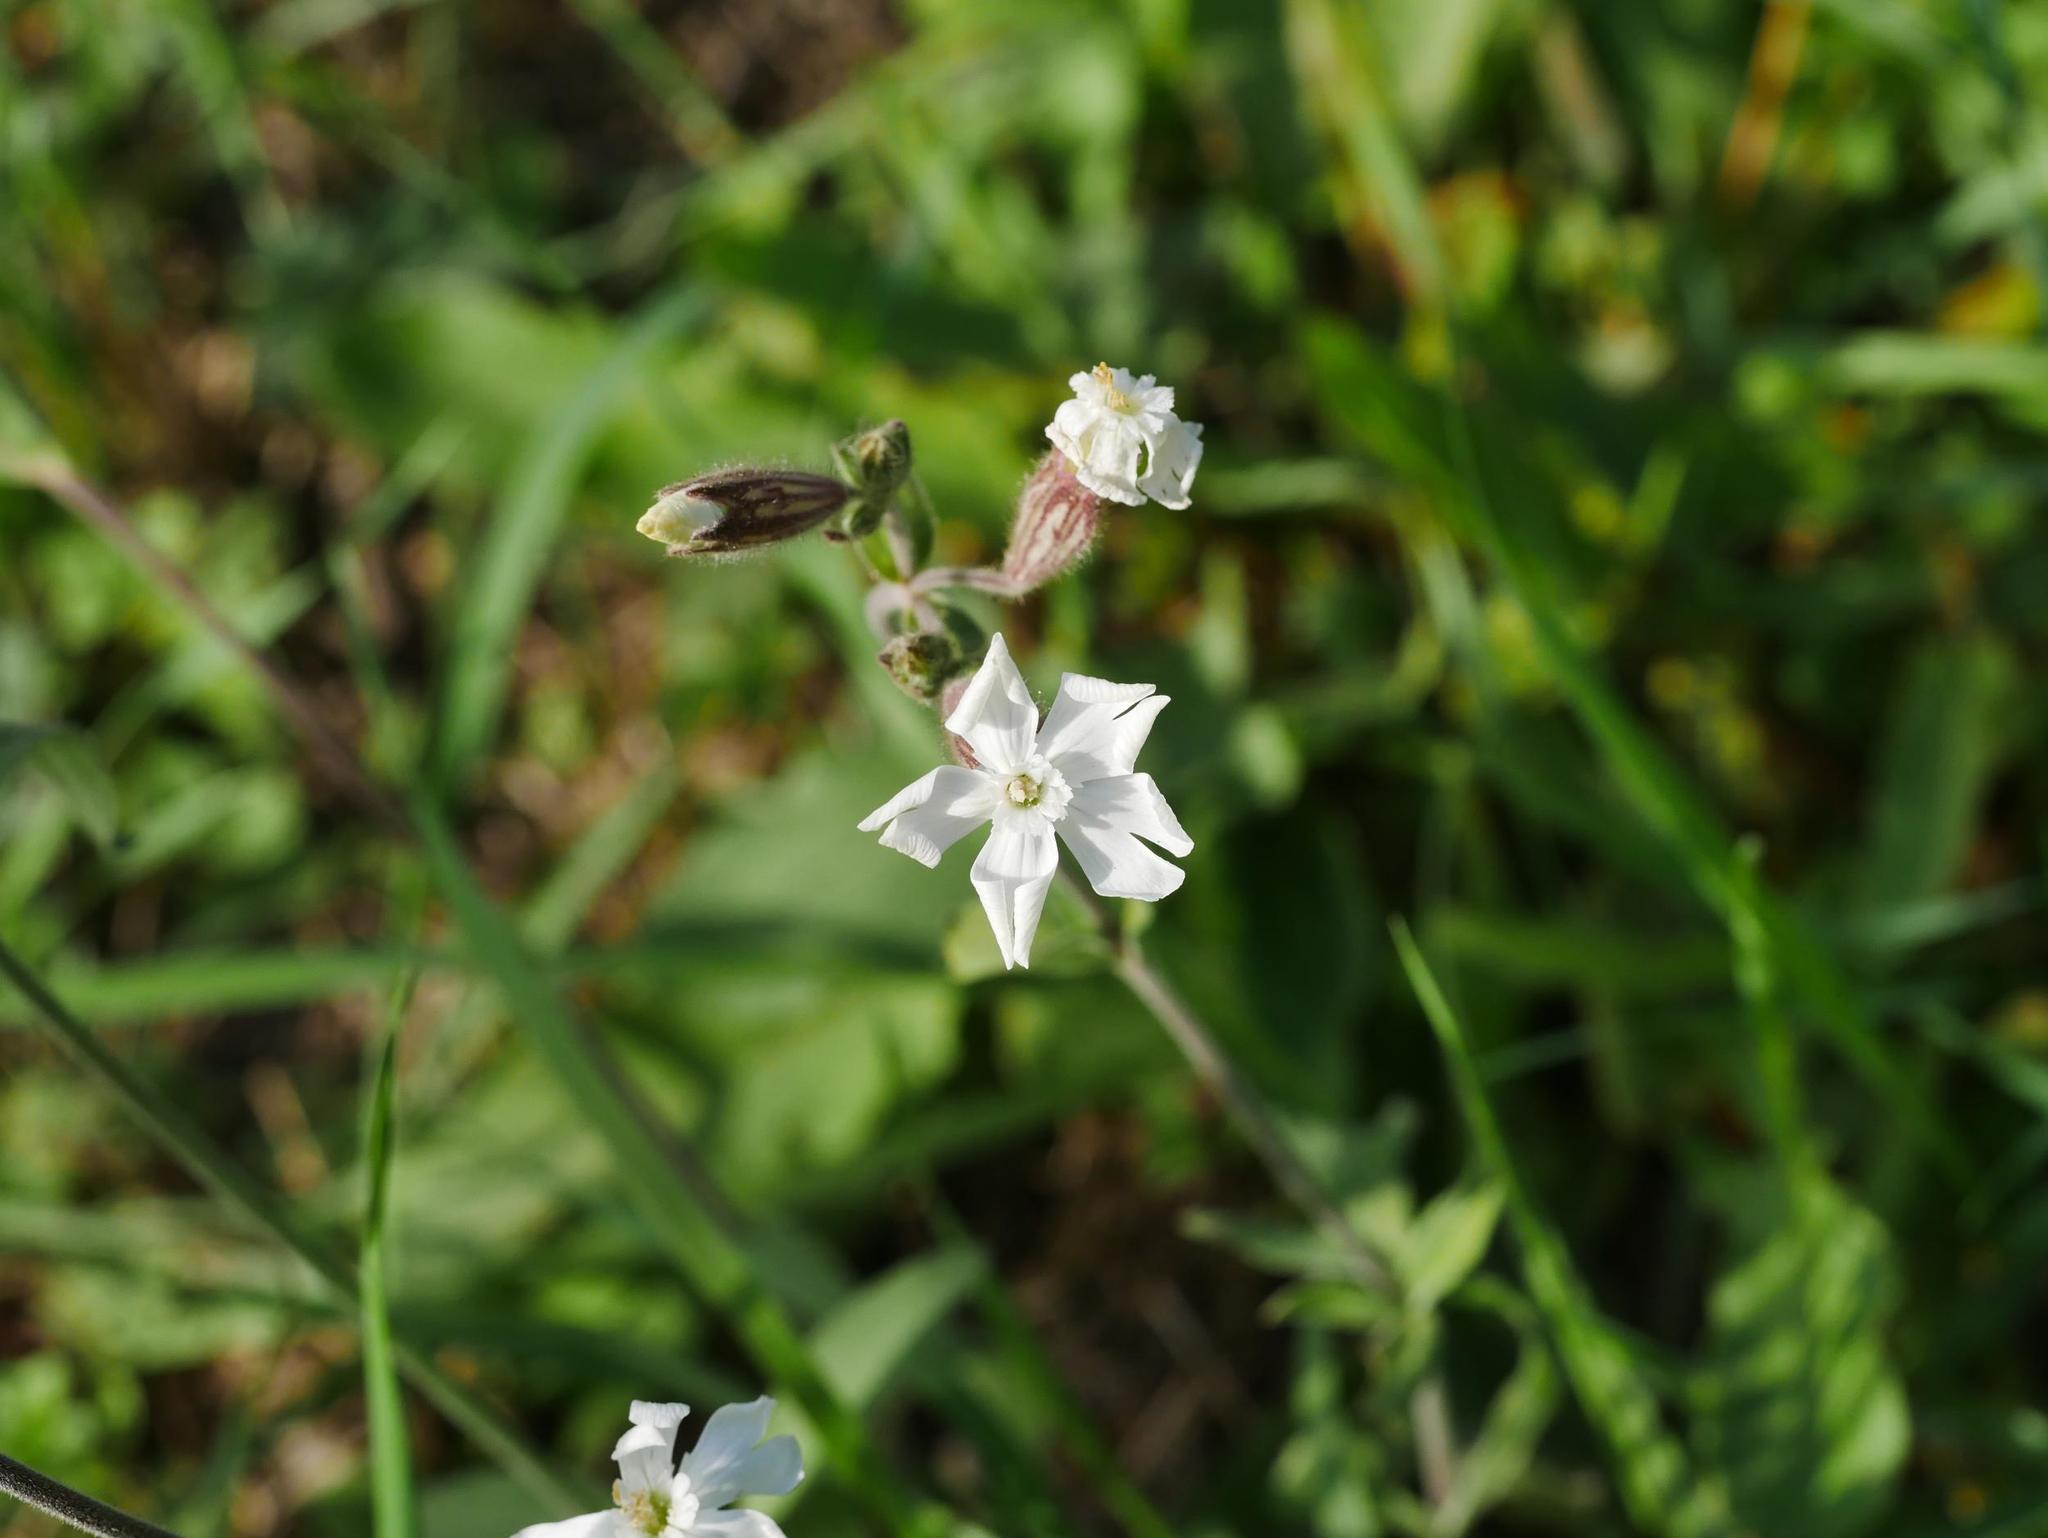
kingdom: Plantae
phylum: Tracheophyta
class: Magnoliopsida
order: Caryophyllales
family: Caryophyllaceae
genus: Silene
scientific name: Silene latifolia
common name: White campion
